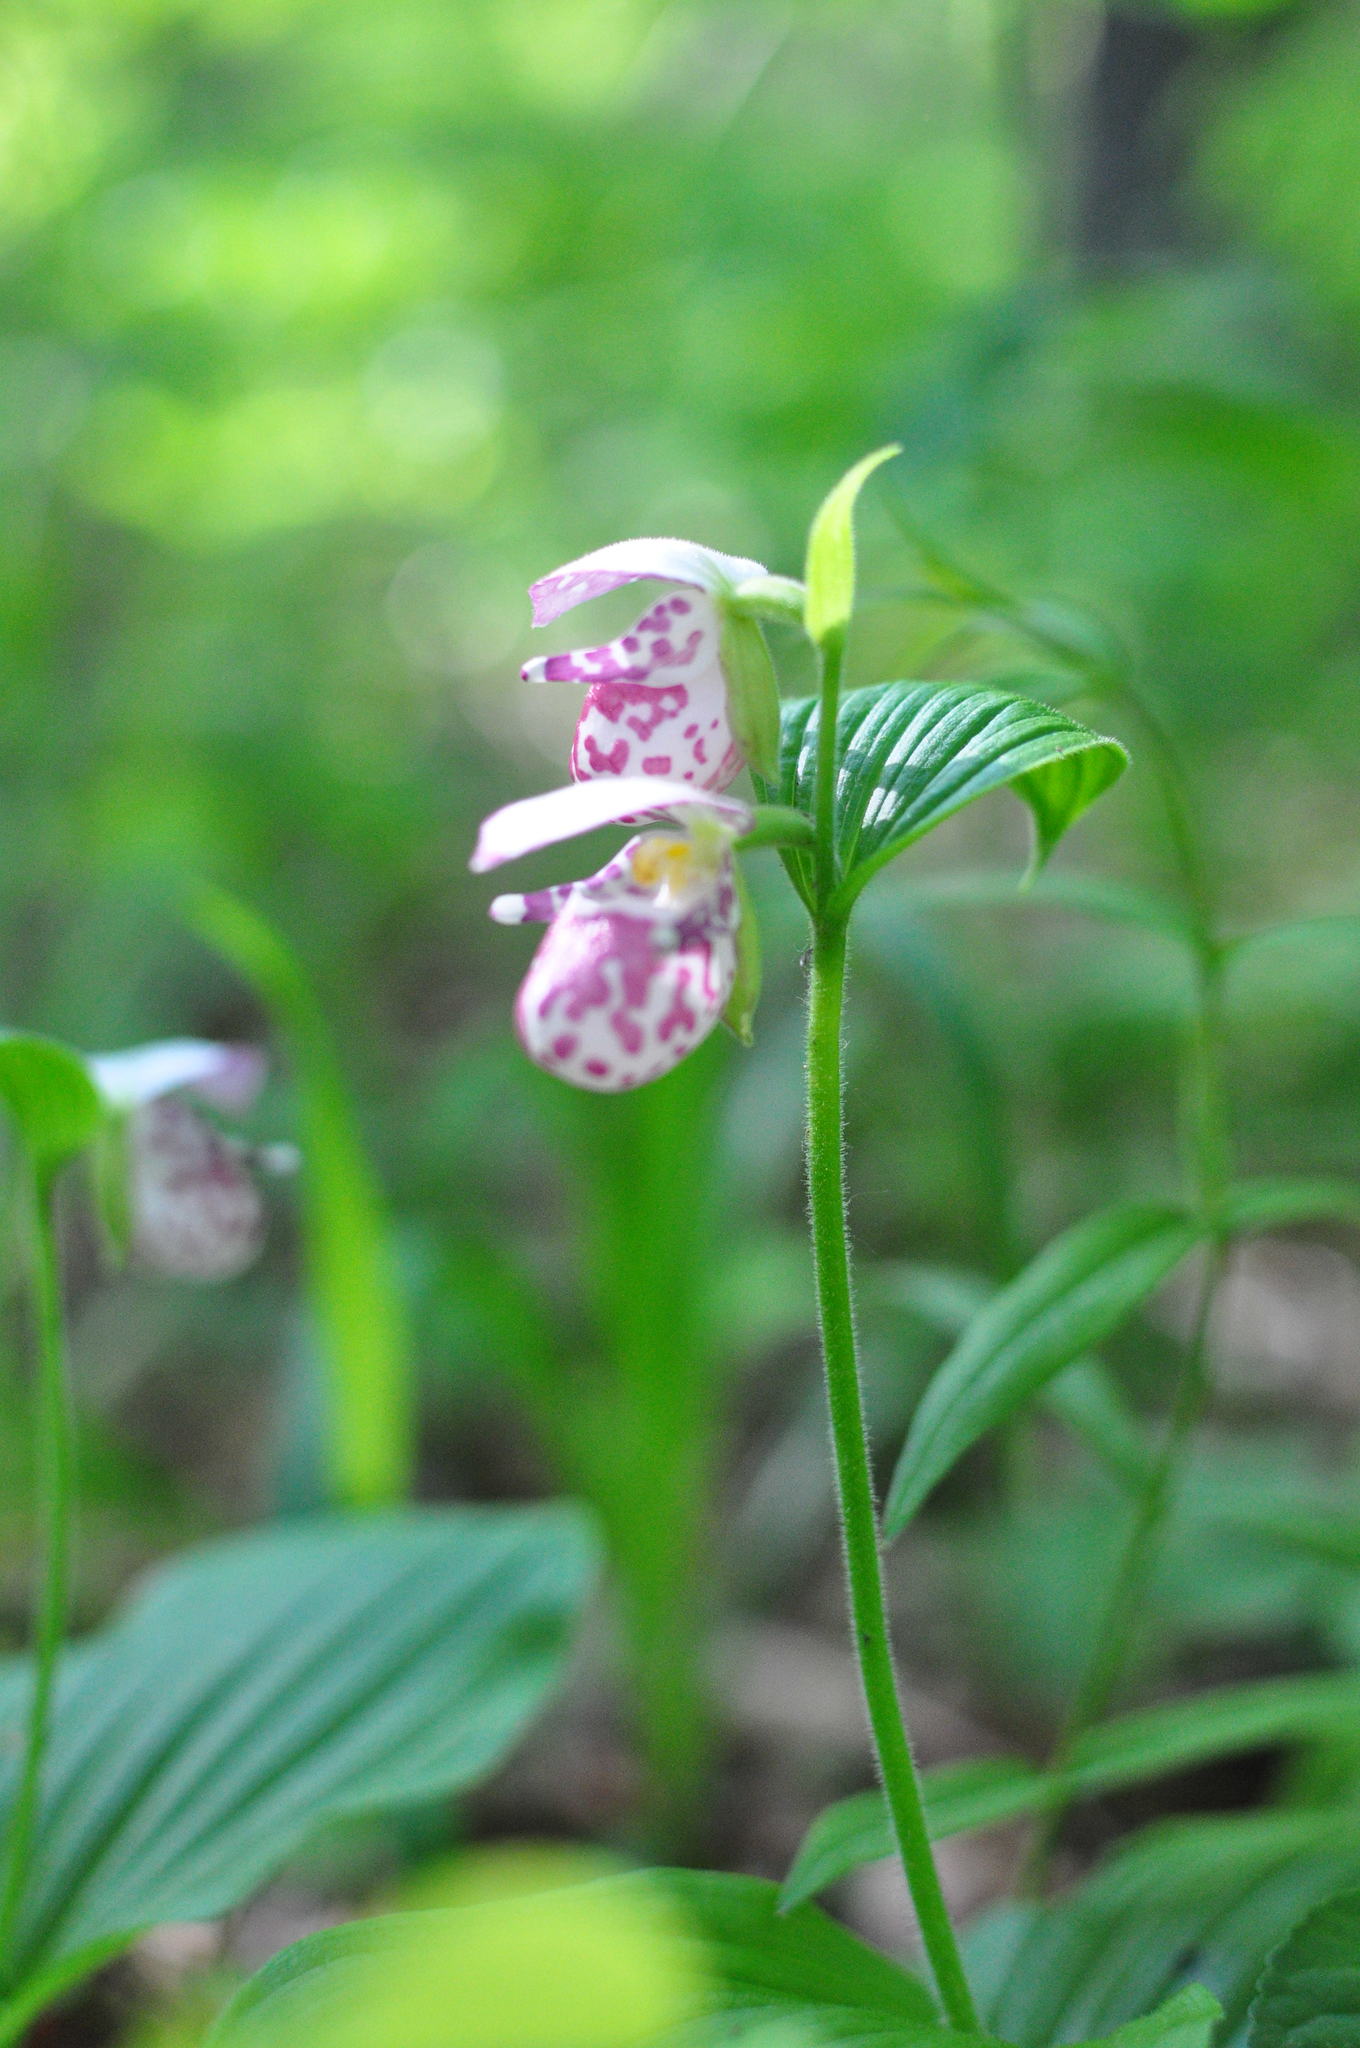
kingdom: Plantae
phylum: Tracheophyta
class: Liliopsida
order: Asparagales
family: Orchidaceae
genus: Cypripedium
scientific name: Cypripedium guttatum
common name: Pink lady slipper
